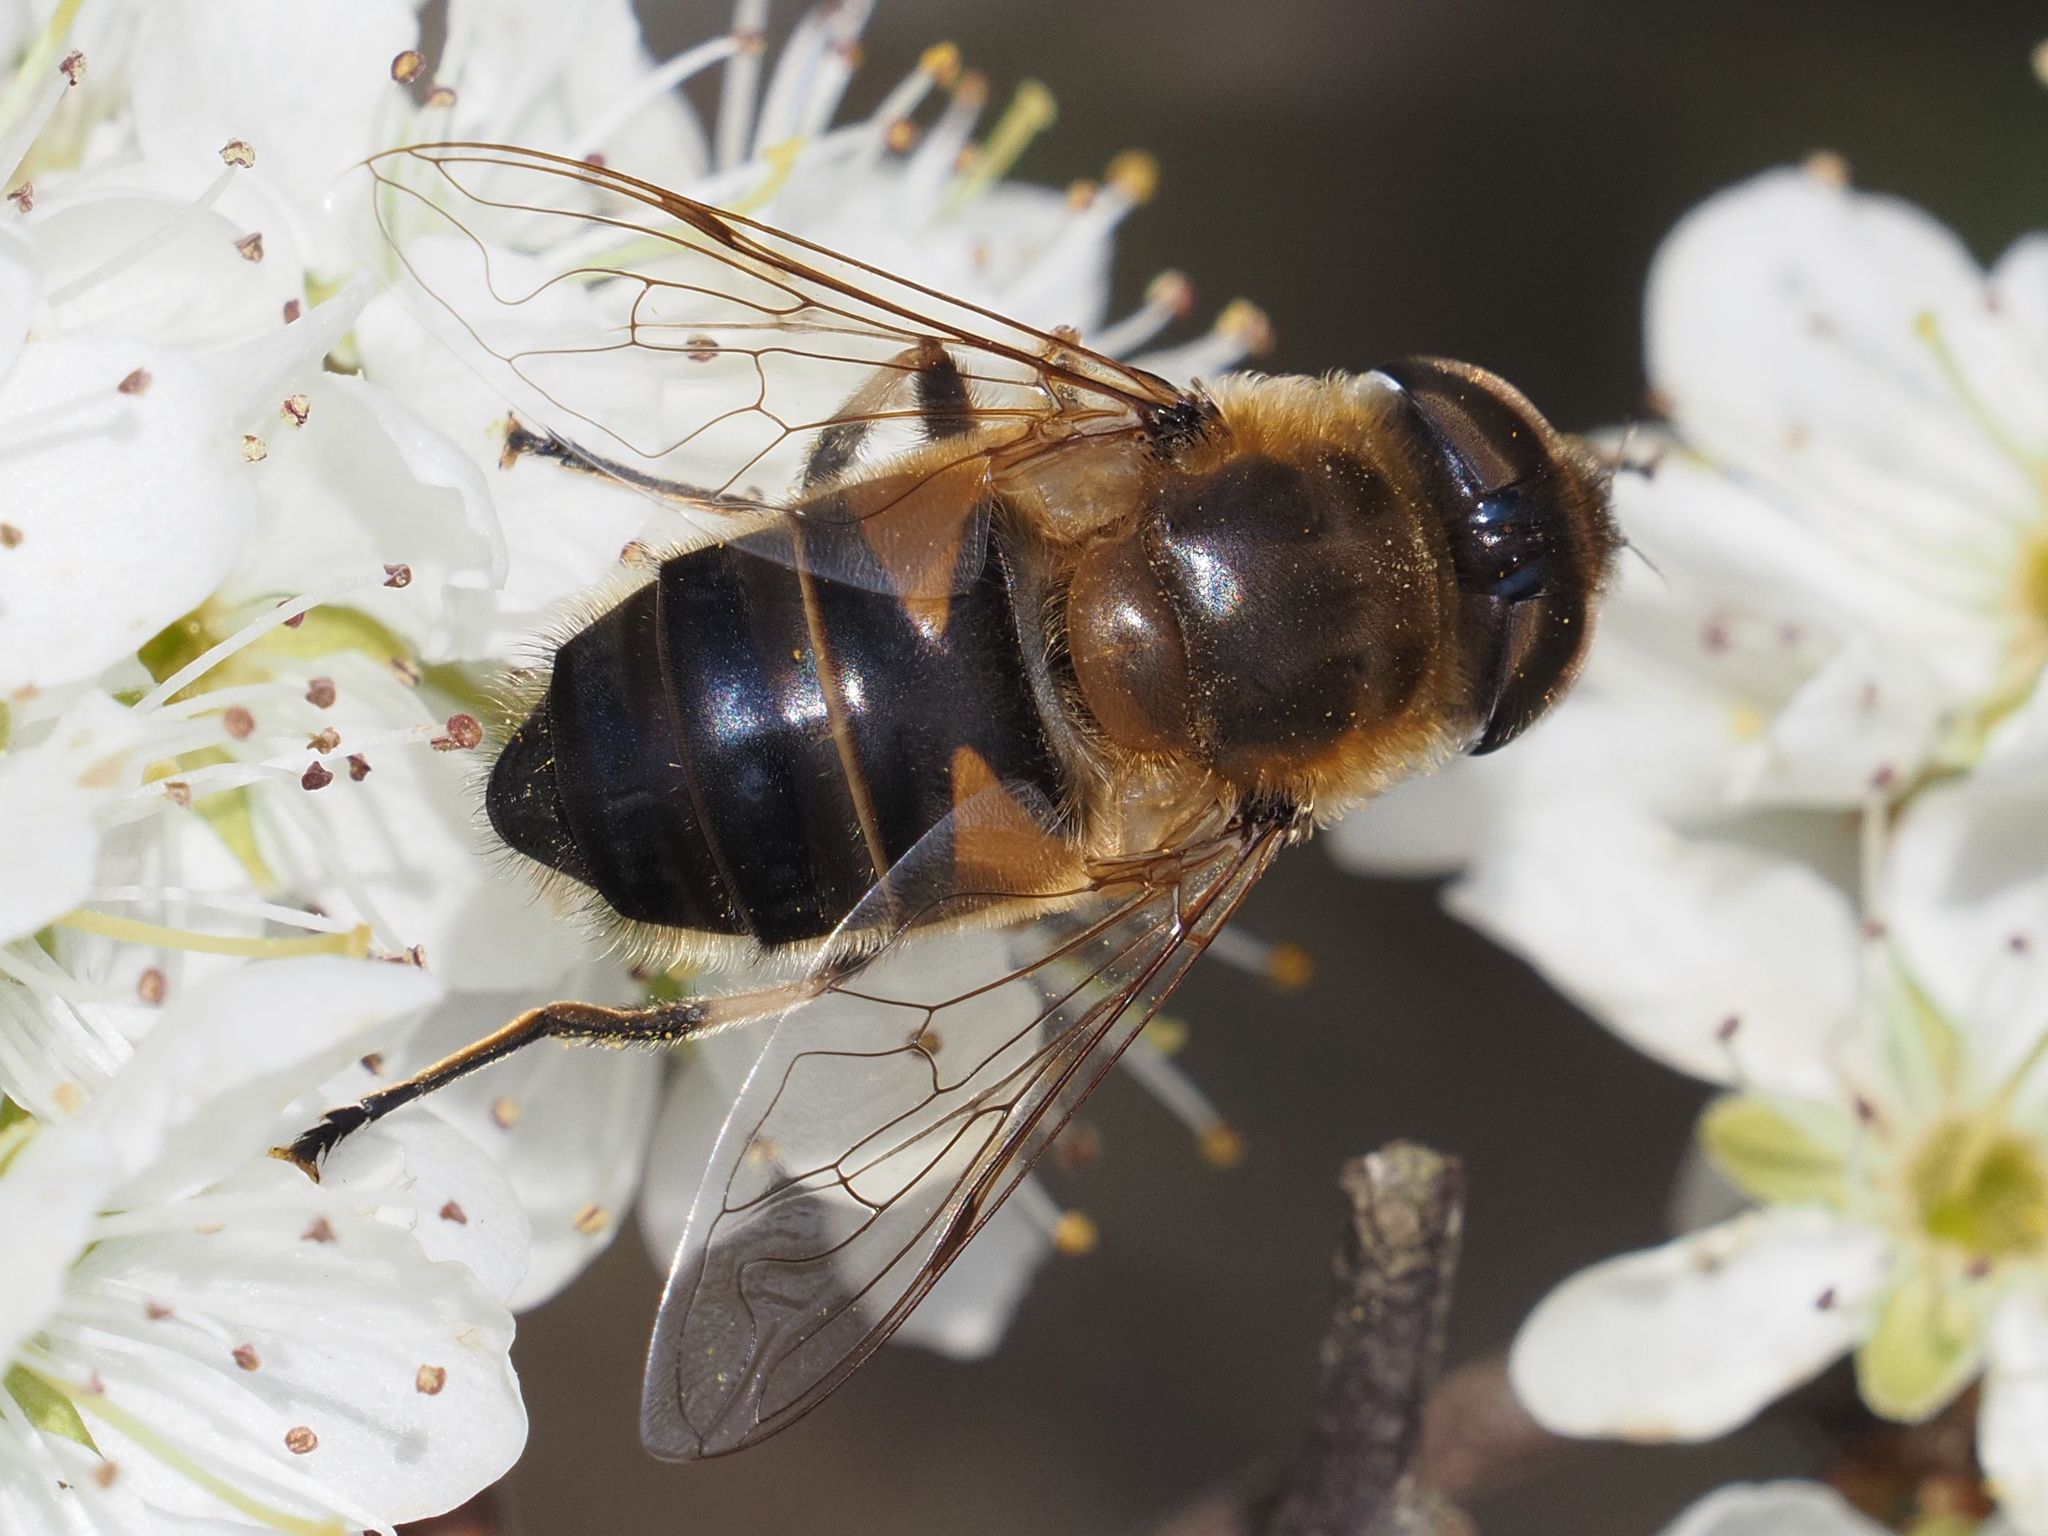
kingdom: Animalia
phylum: Arthropoda
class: Insecta
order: Diptera
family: Syrphidae
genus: Eristalis
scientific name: Eristalis pertinax
